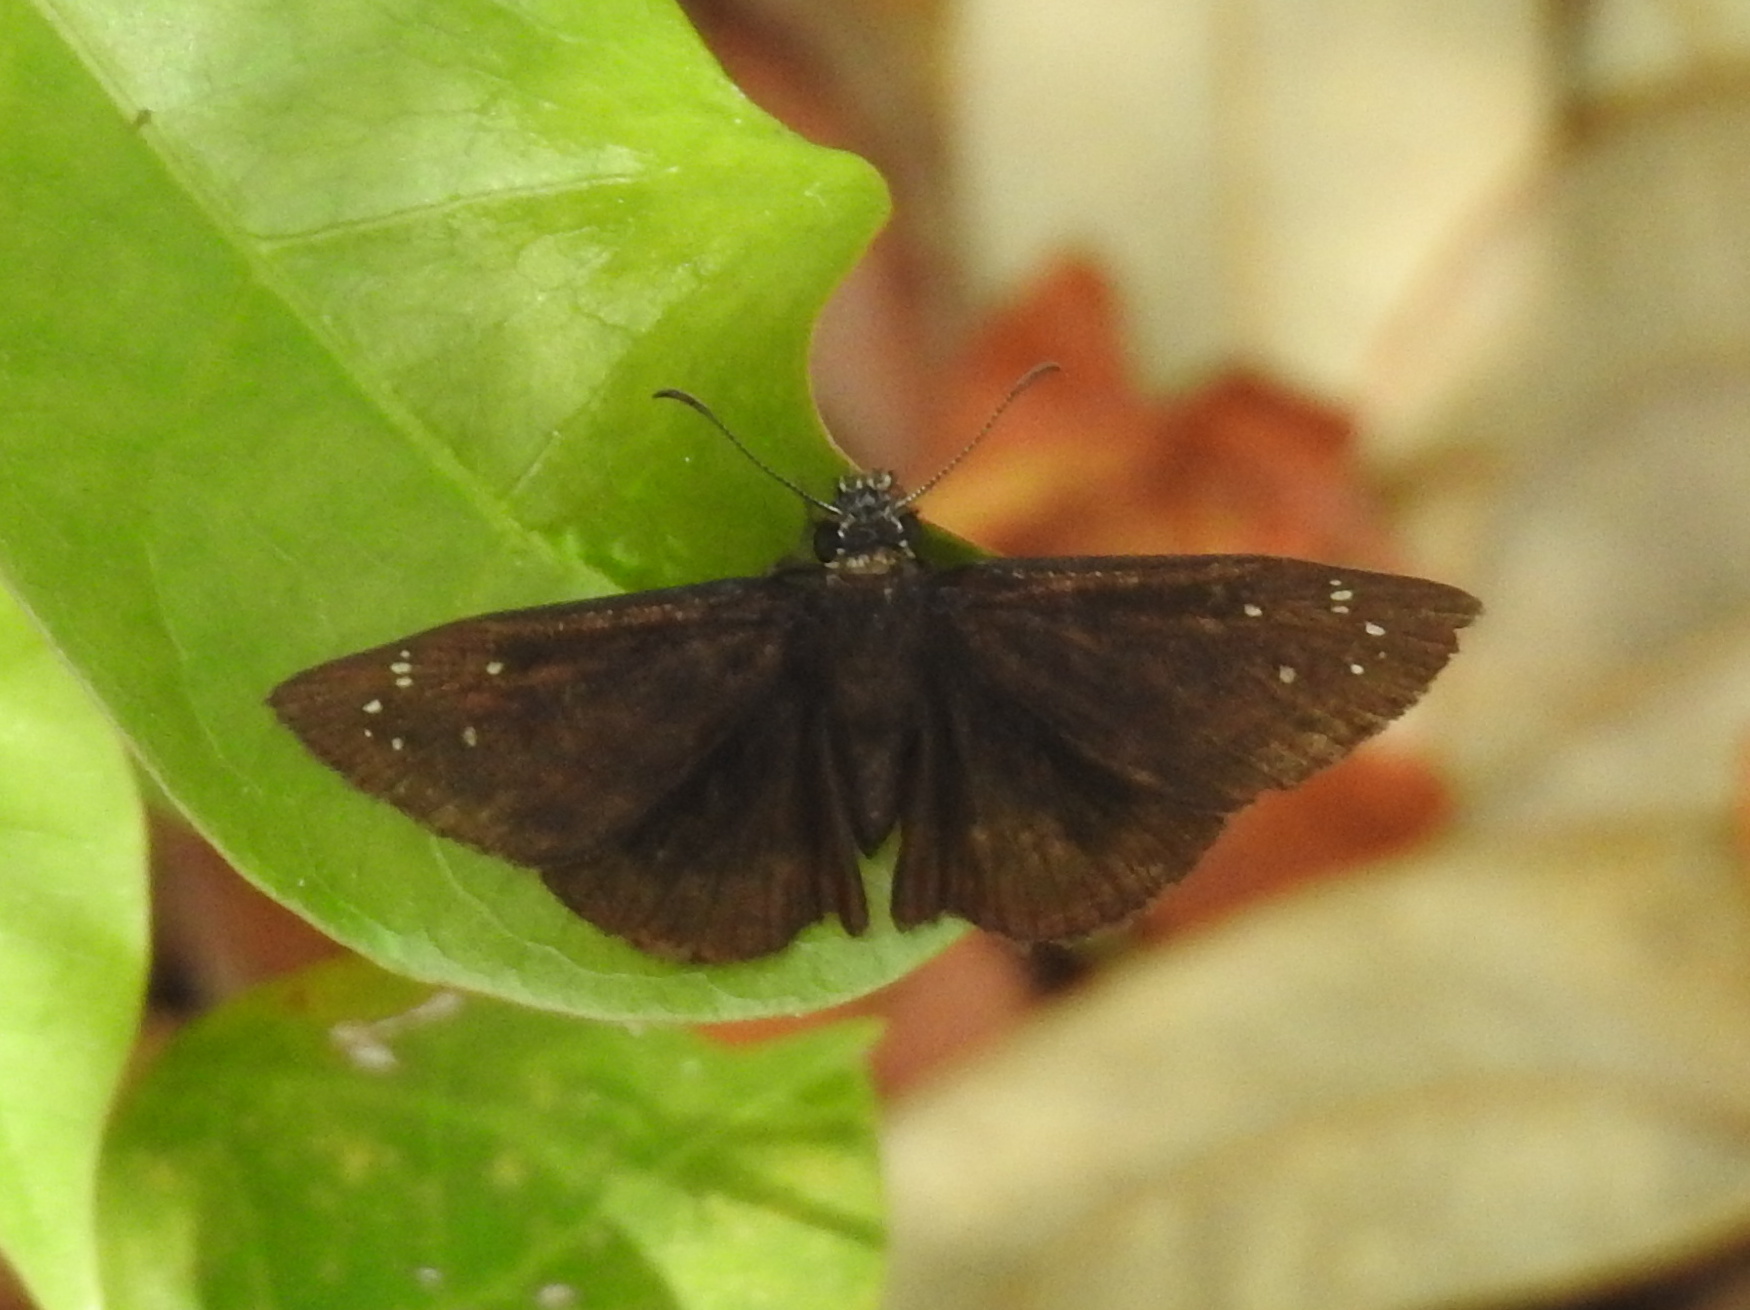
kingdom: Animalia
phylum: Arthropoda
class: Insecta
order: Lepidoptera
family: Hesperiidae
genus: Ephyriades
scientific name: Ephyriades brunnea
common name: Florida duskywing
